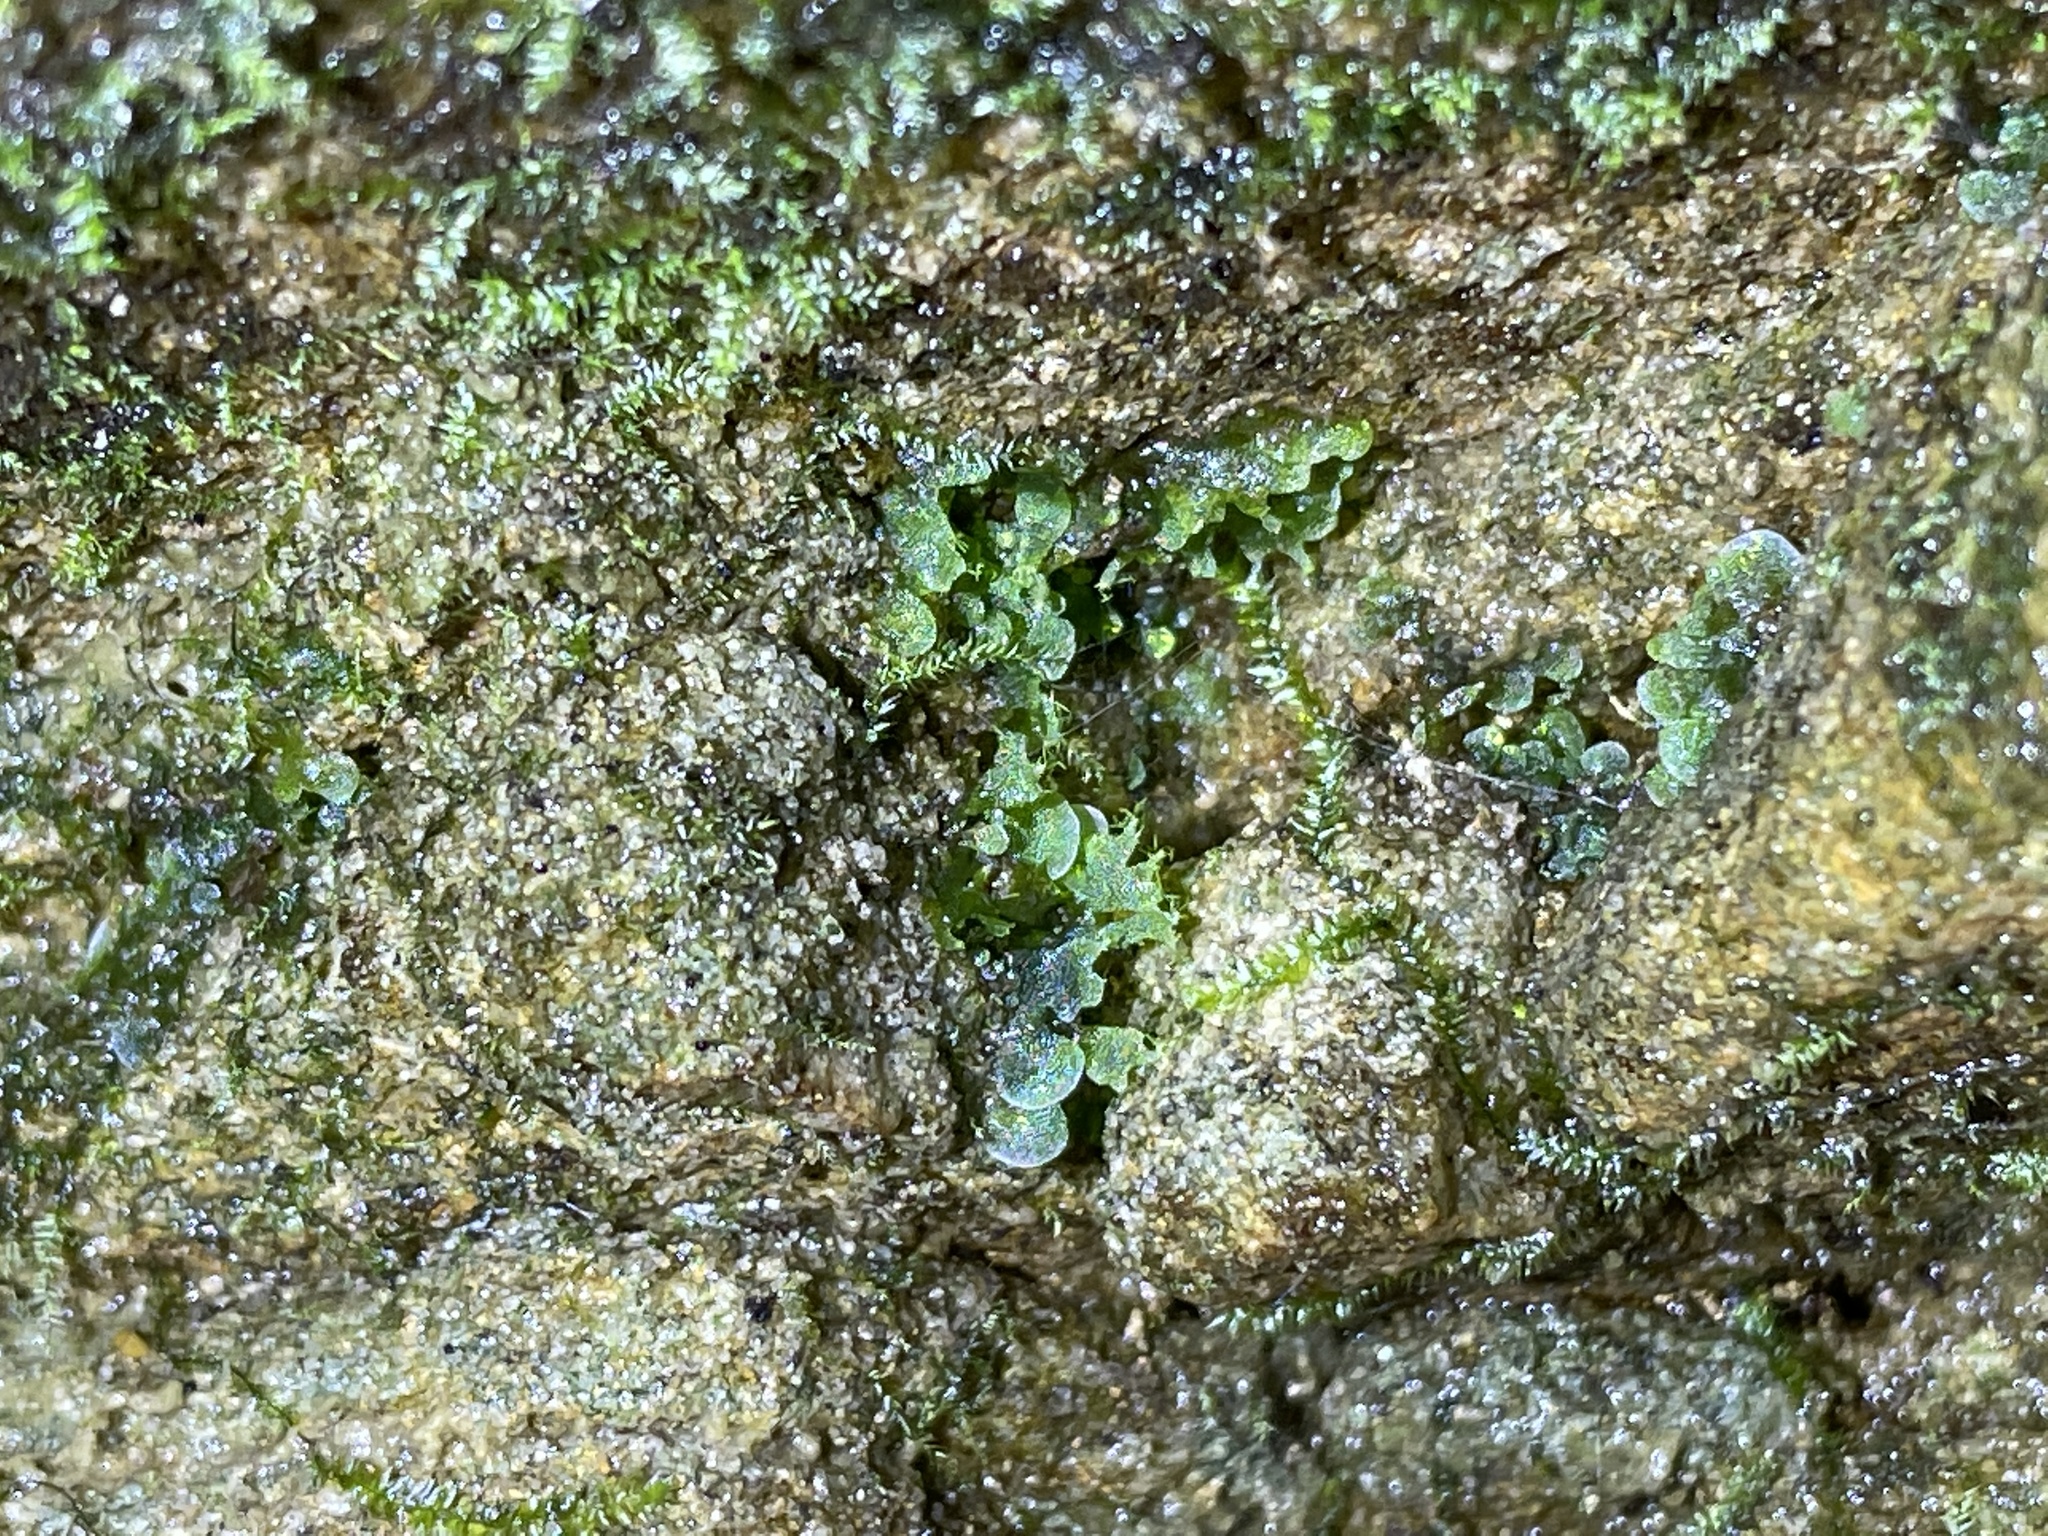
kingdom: Plantae
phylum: Tracheophyta
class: Polypodiopsida
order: Polypodiales
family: Pteridaceae
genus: Vittaria
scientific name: Vittaria appalachiana
